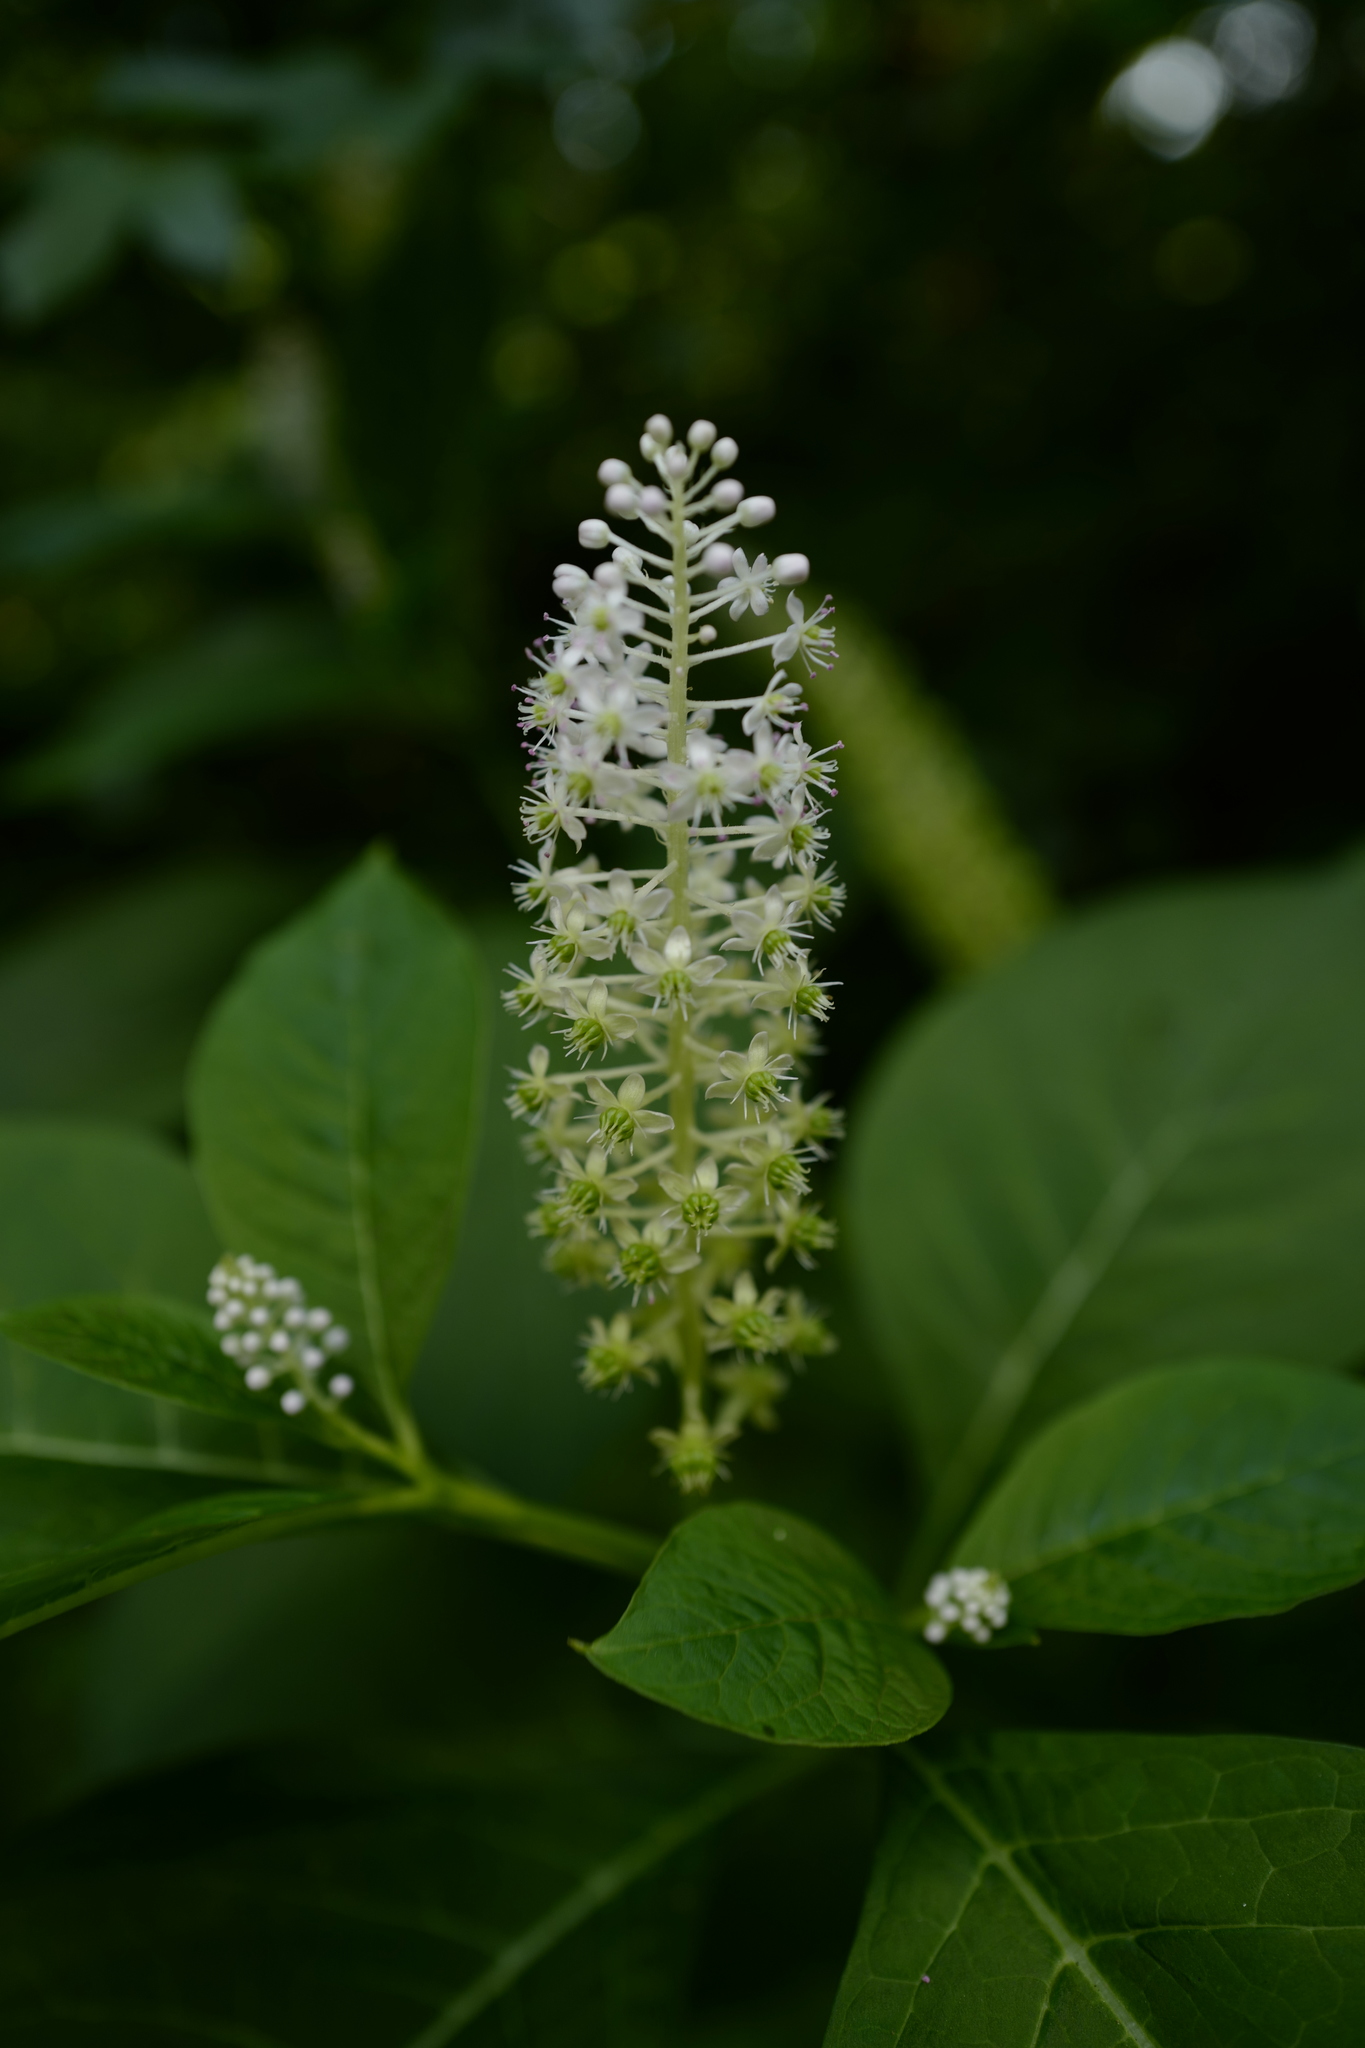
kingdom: Plantae
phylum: Tracheophyta
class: Magnoliopsida
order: Caryophyllales
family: Phytolaccaceae
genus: Phytolacca
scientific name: Phytolacca acinosa
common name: Indian pokeweed
